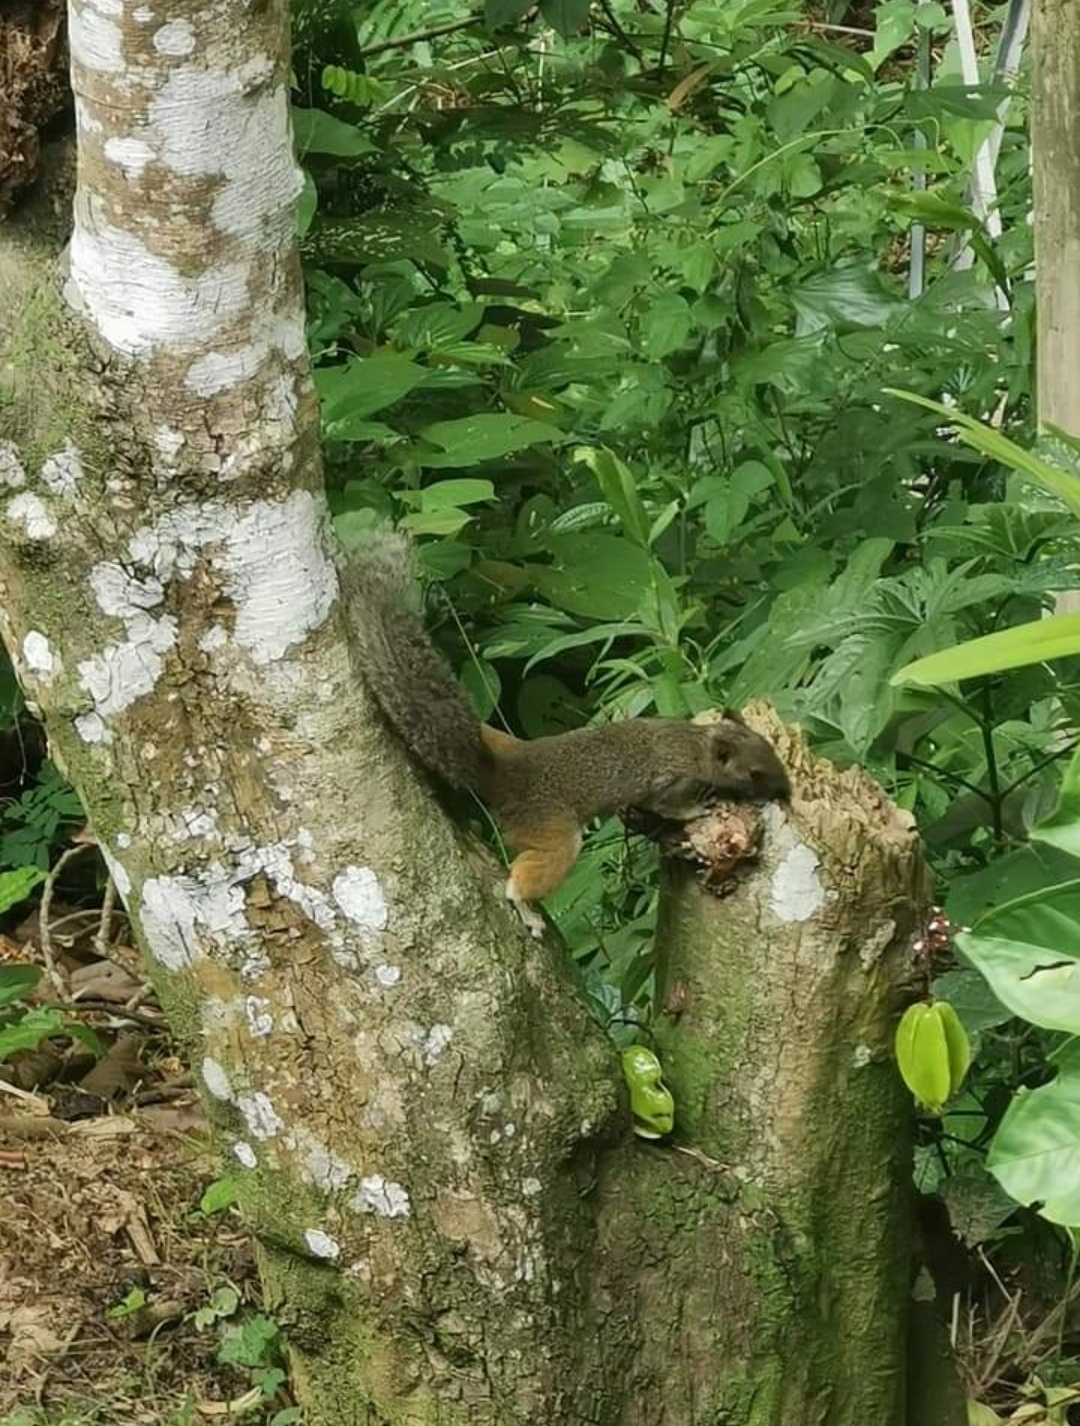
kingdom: Animalia
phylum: Chordata
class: Mammalia
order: Rodentia
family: Sciuridae
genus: Callosciurus
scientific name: Callosciurus erythraeus
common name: Pallas's squirrel
